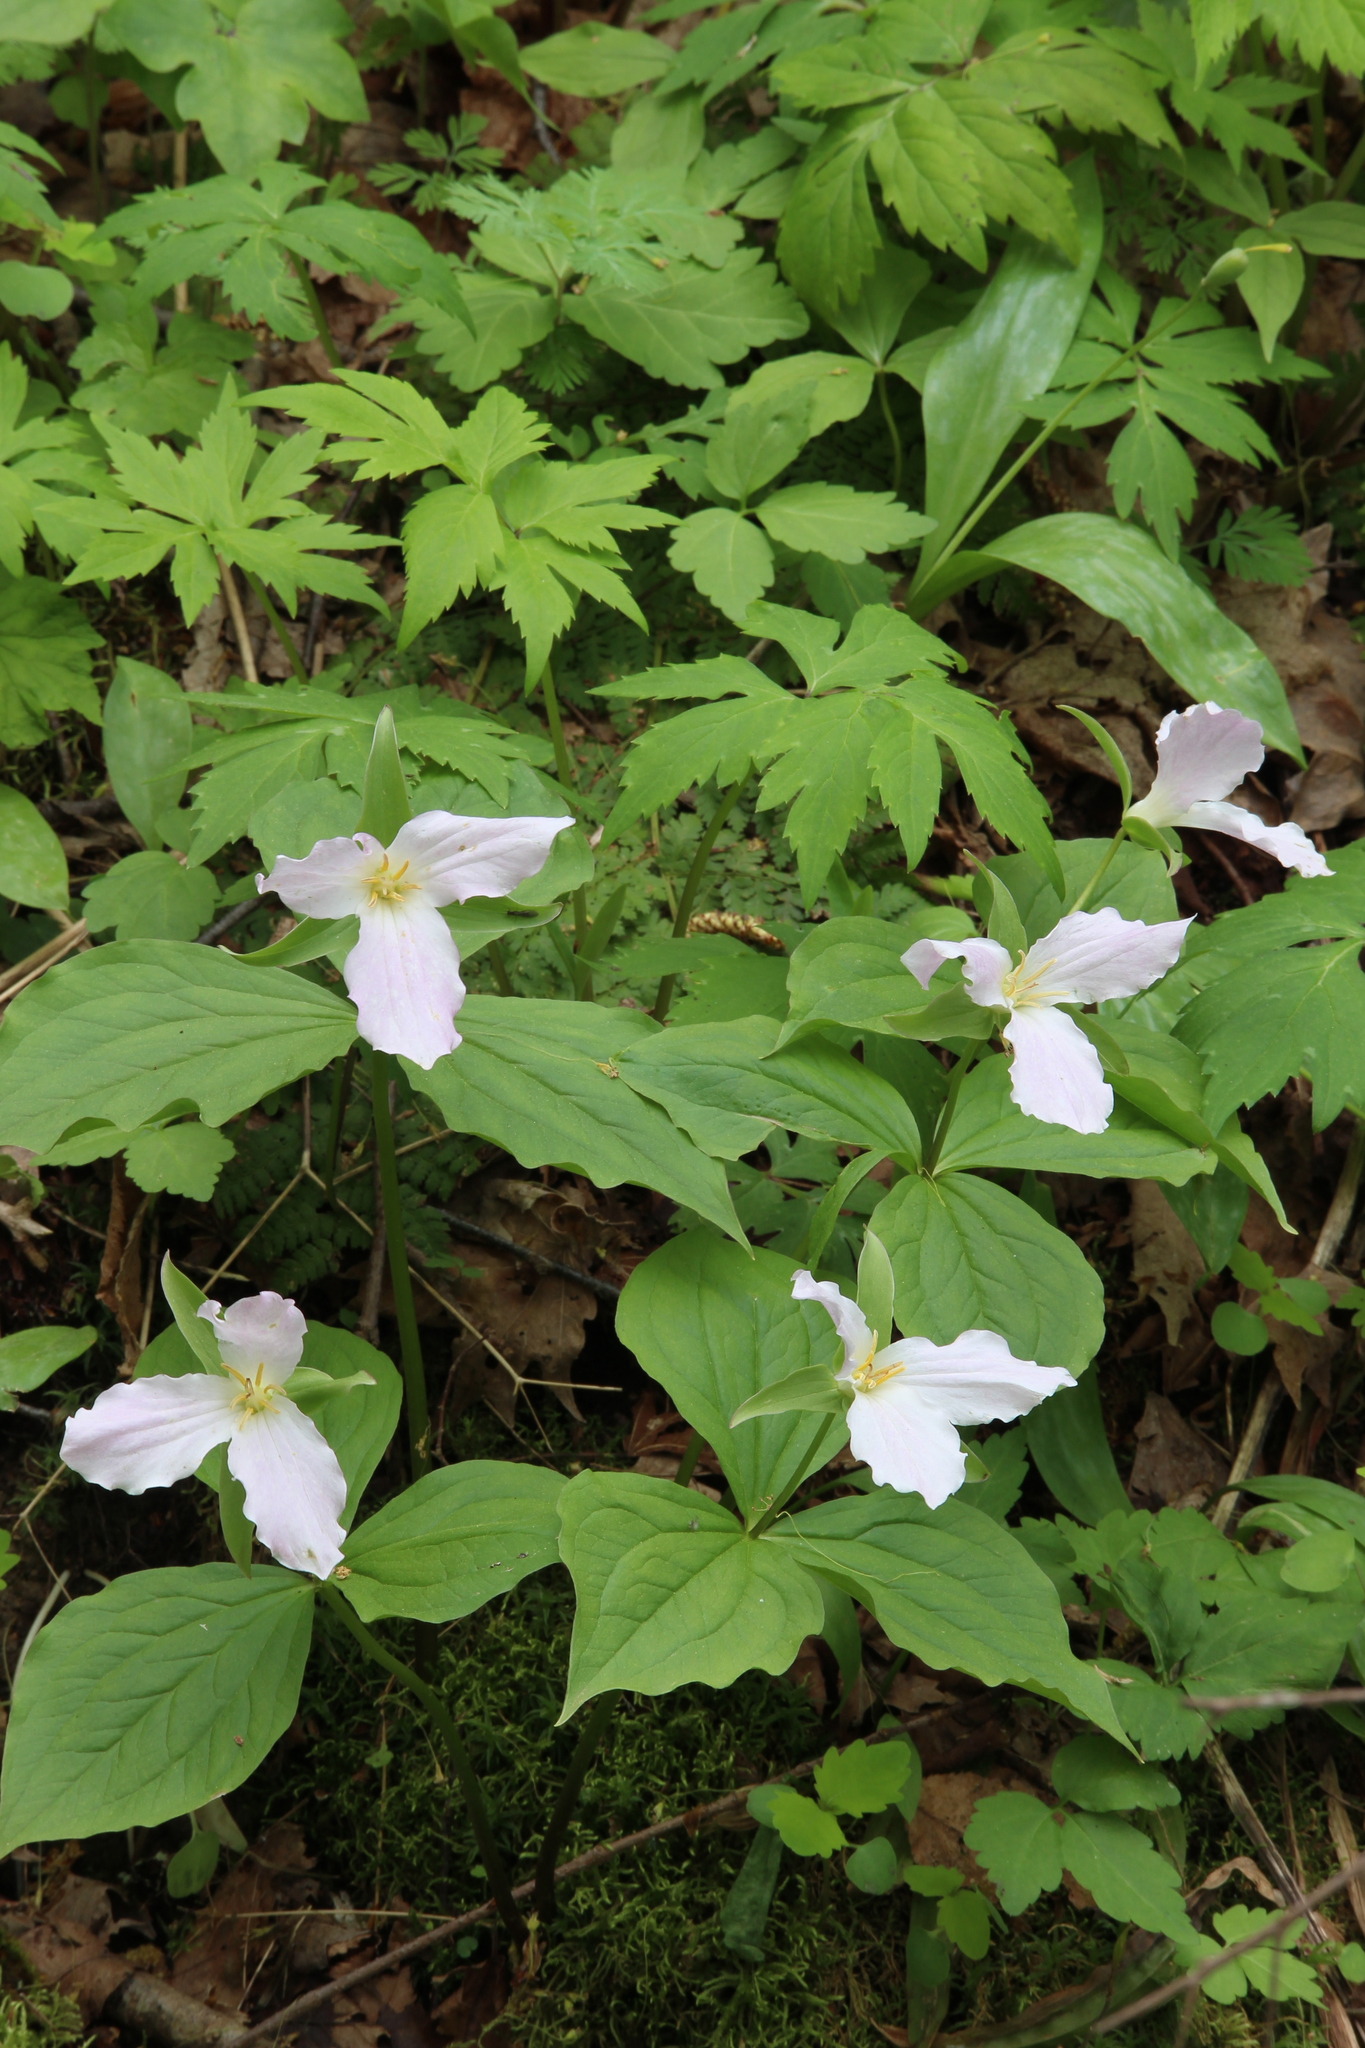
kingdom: Plantae
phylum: Tracheophyta
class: Liliopsida
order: Liliales
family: Melanthiaceae
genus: Trillium
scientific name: Trillium grandiflorum
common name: Great white trillium
